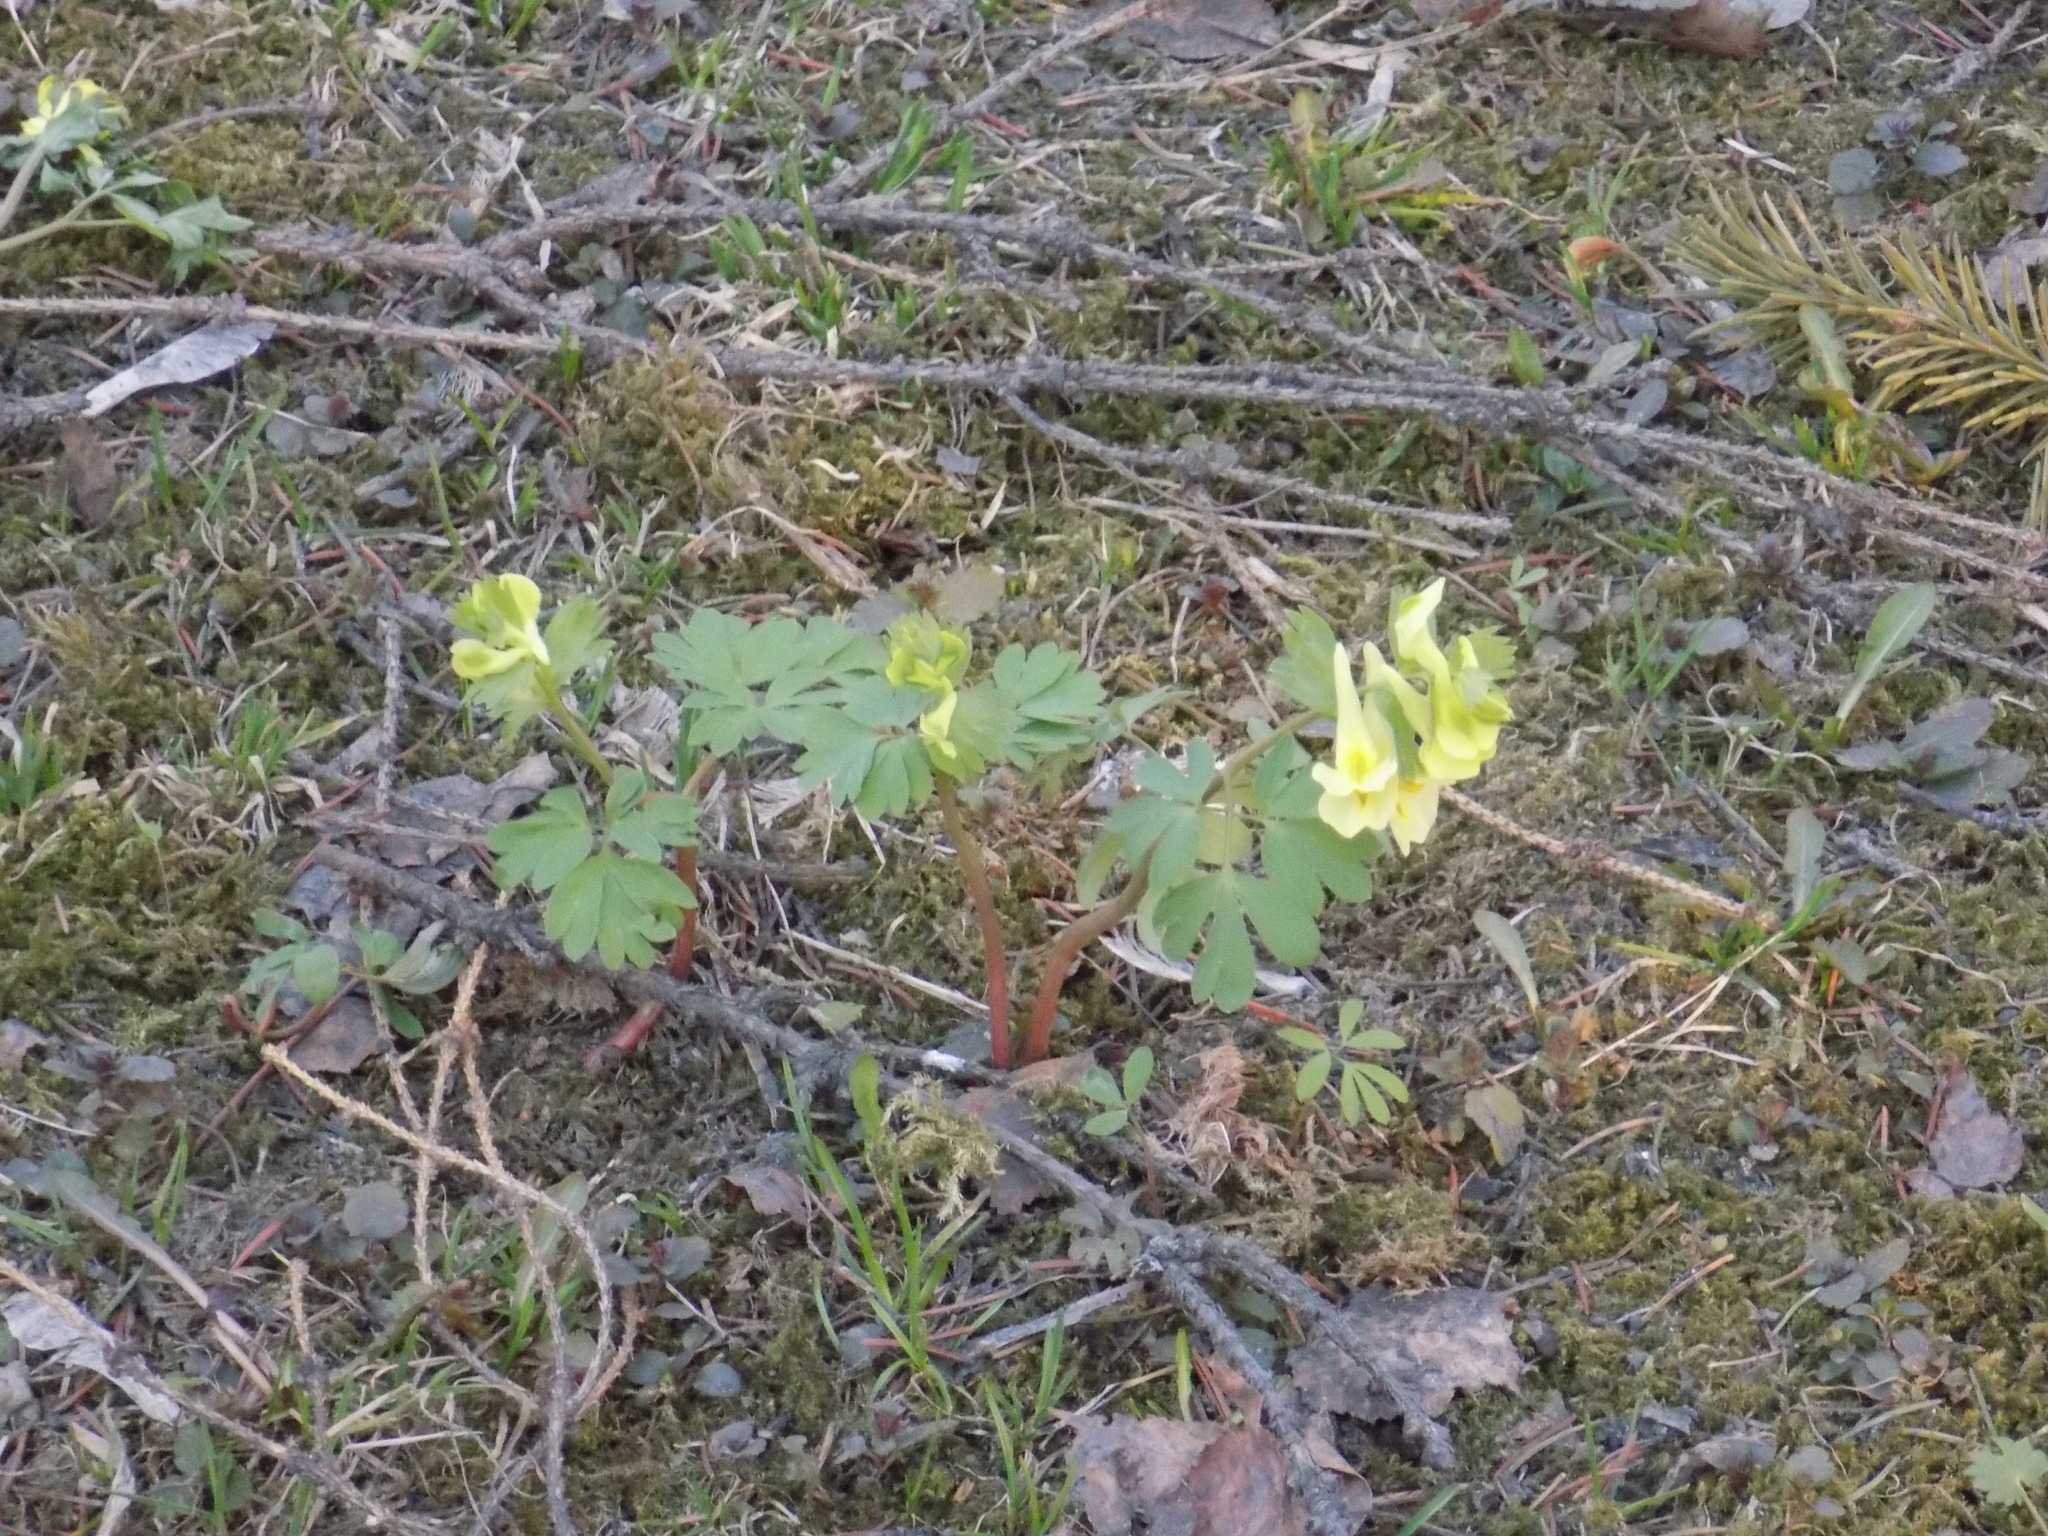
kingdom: Plantae
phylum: Tracheophyta
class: Magnoliopsida
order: Ranunculales
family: Papaveraceae
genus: Corydalis
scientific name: Corydalis bracteata
